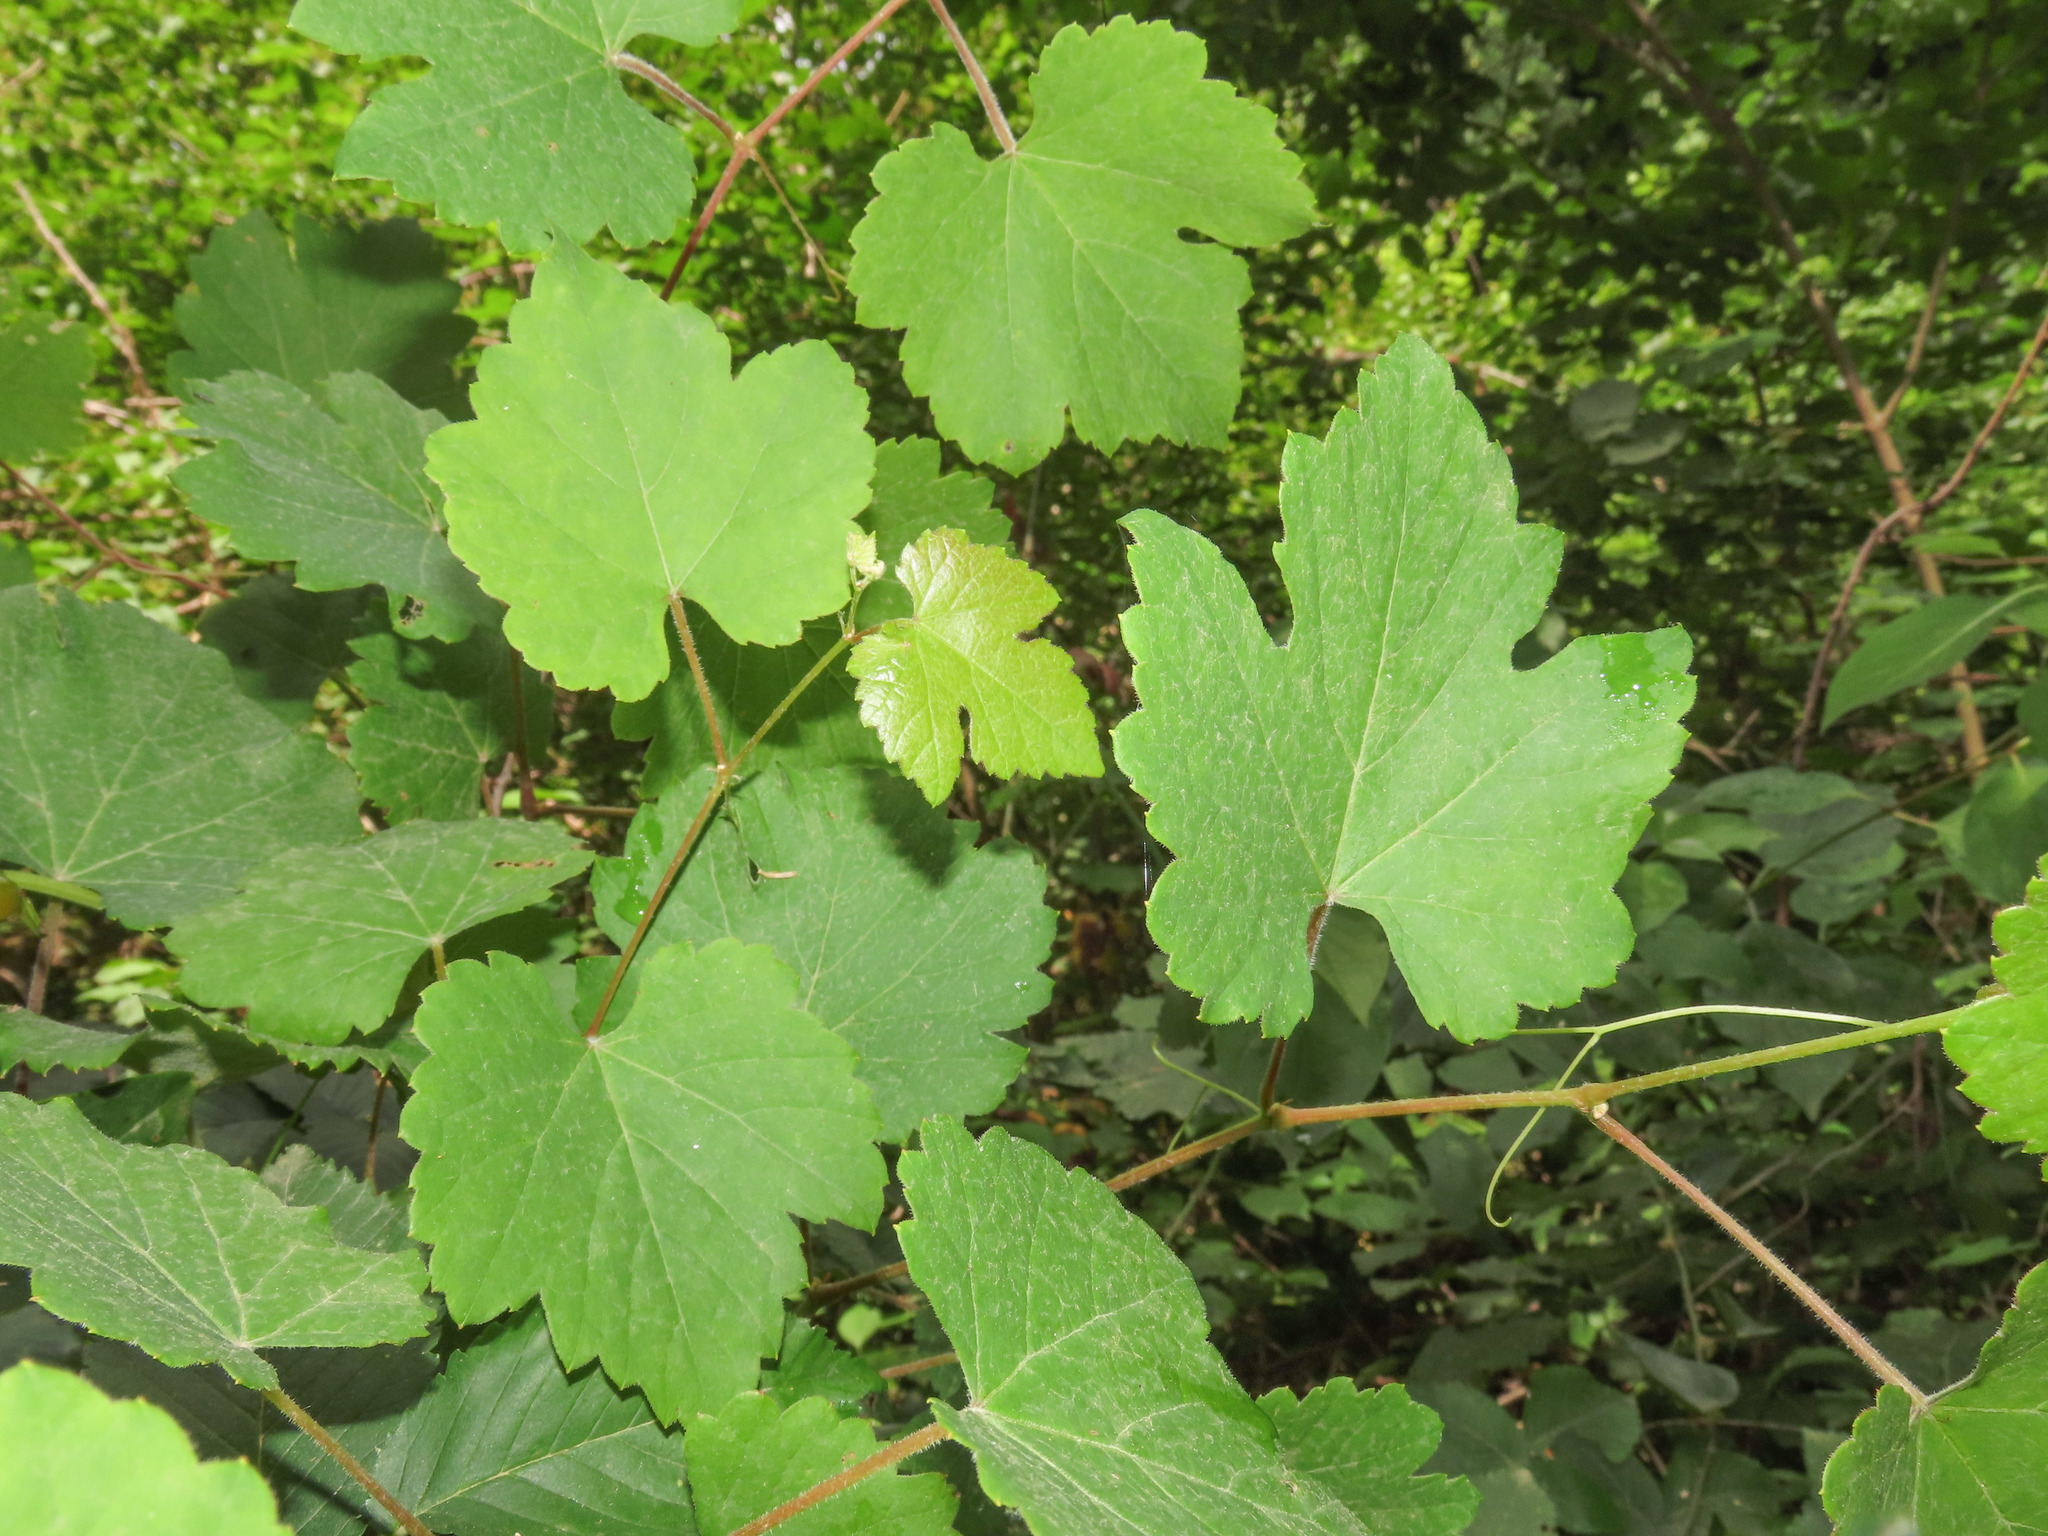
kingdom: Plantae
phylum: Tracheophyta
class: Magnoliopsida
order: Vitales
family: Vitaceae
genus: Vitis
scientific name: Vitis gmelinii
